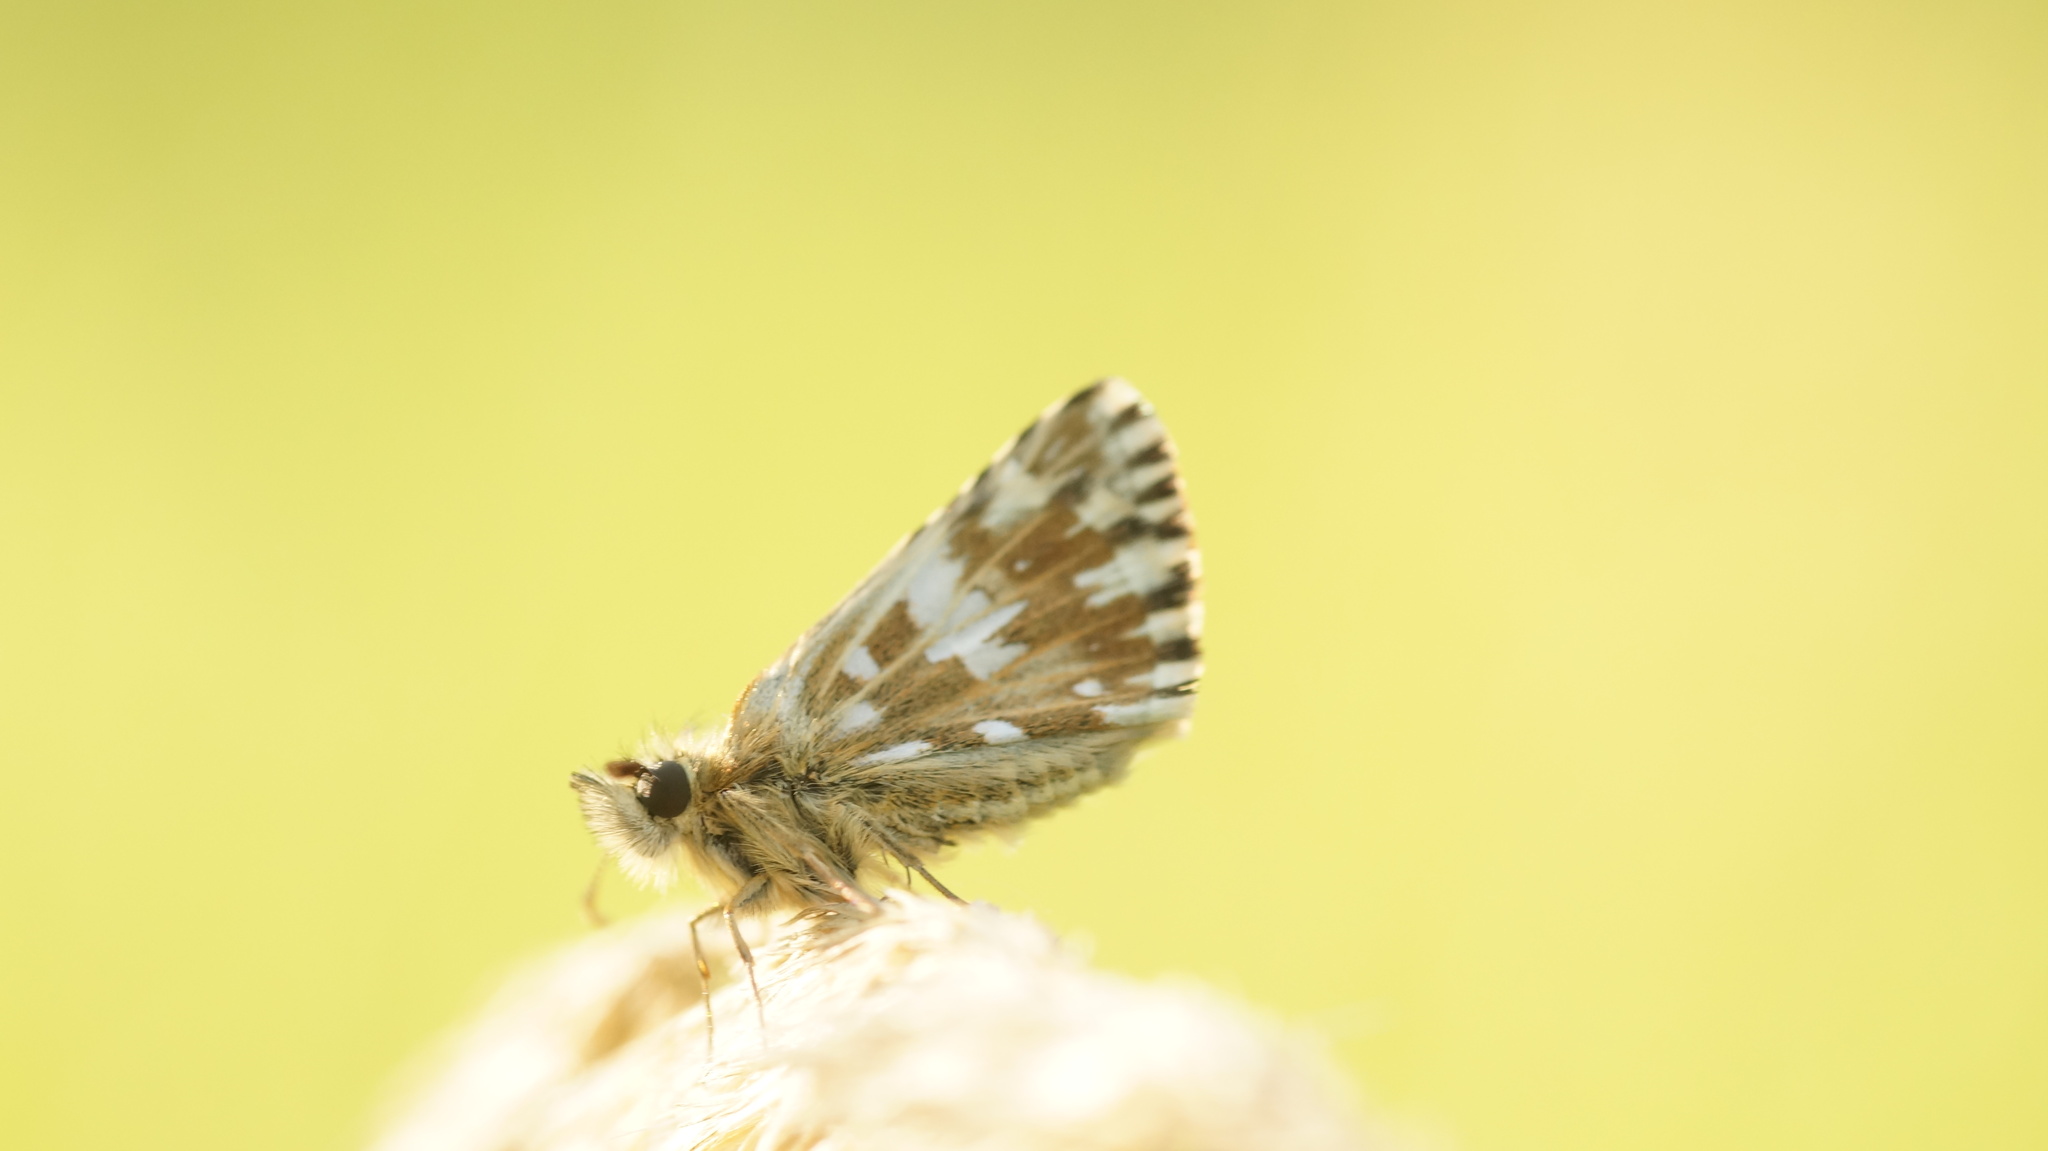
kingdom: Animalia
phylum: Arthropoda
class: Insecta
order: Lepidoptera
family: Hesperiidae
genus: Pyrgus
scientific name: Pyrgus malvae
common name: Grizzled skipper
